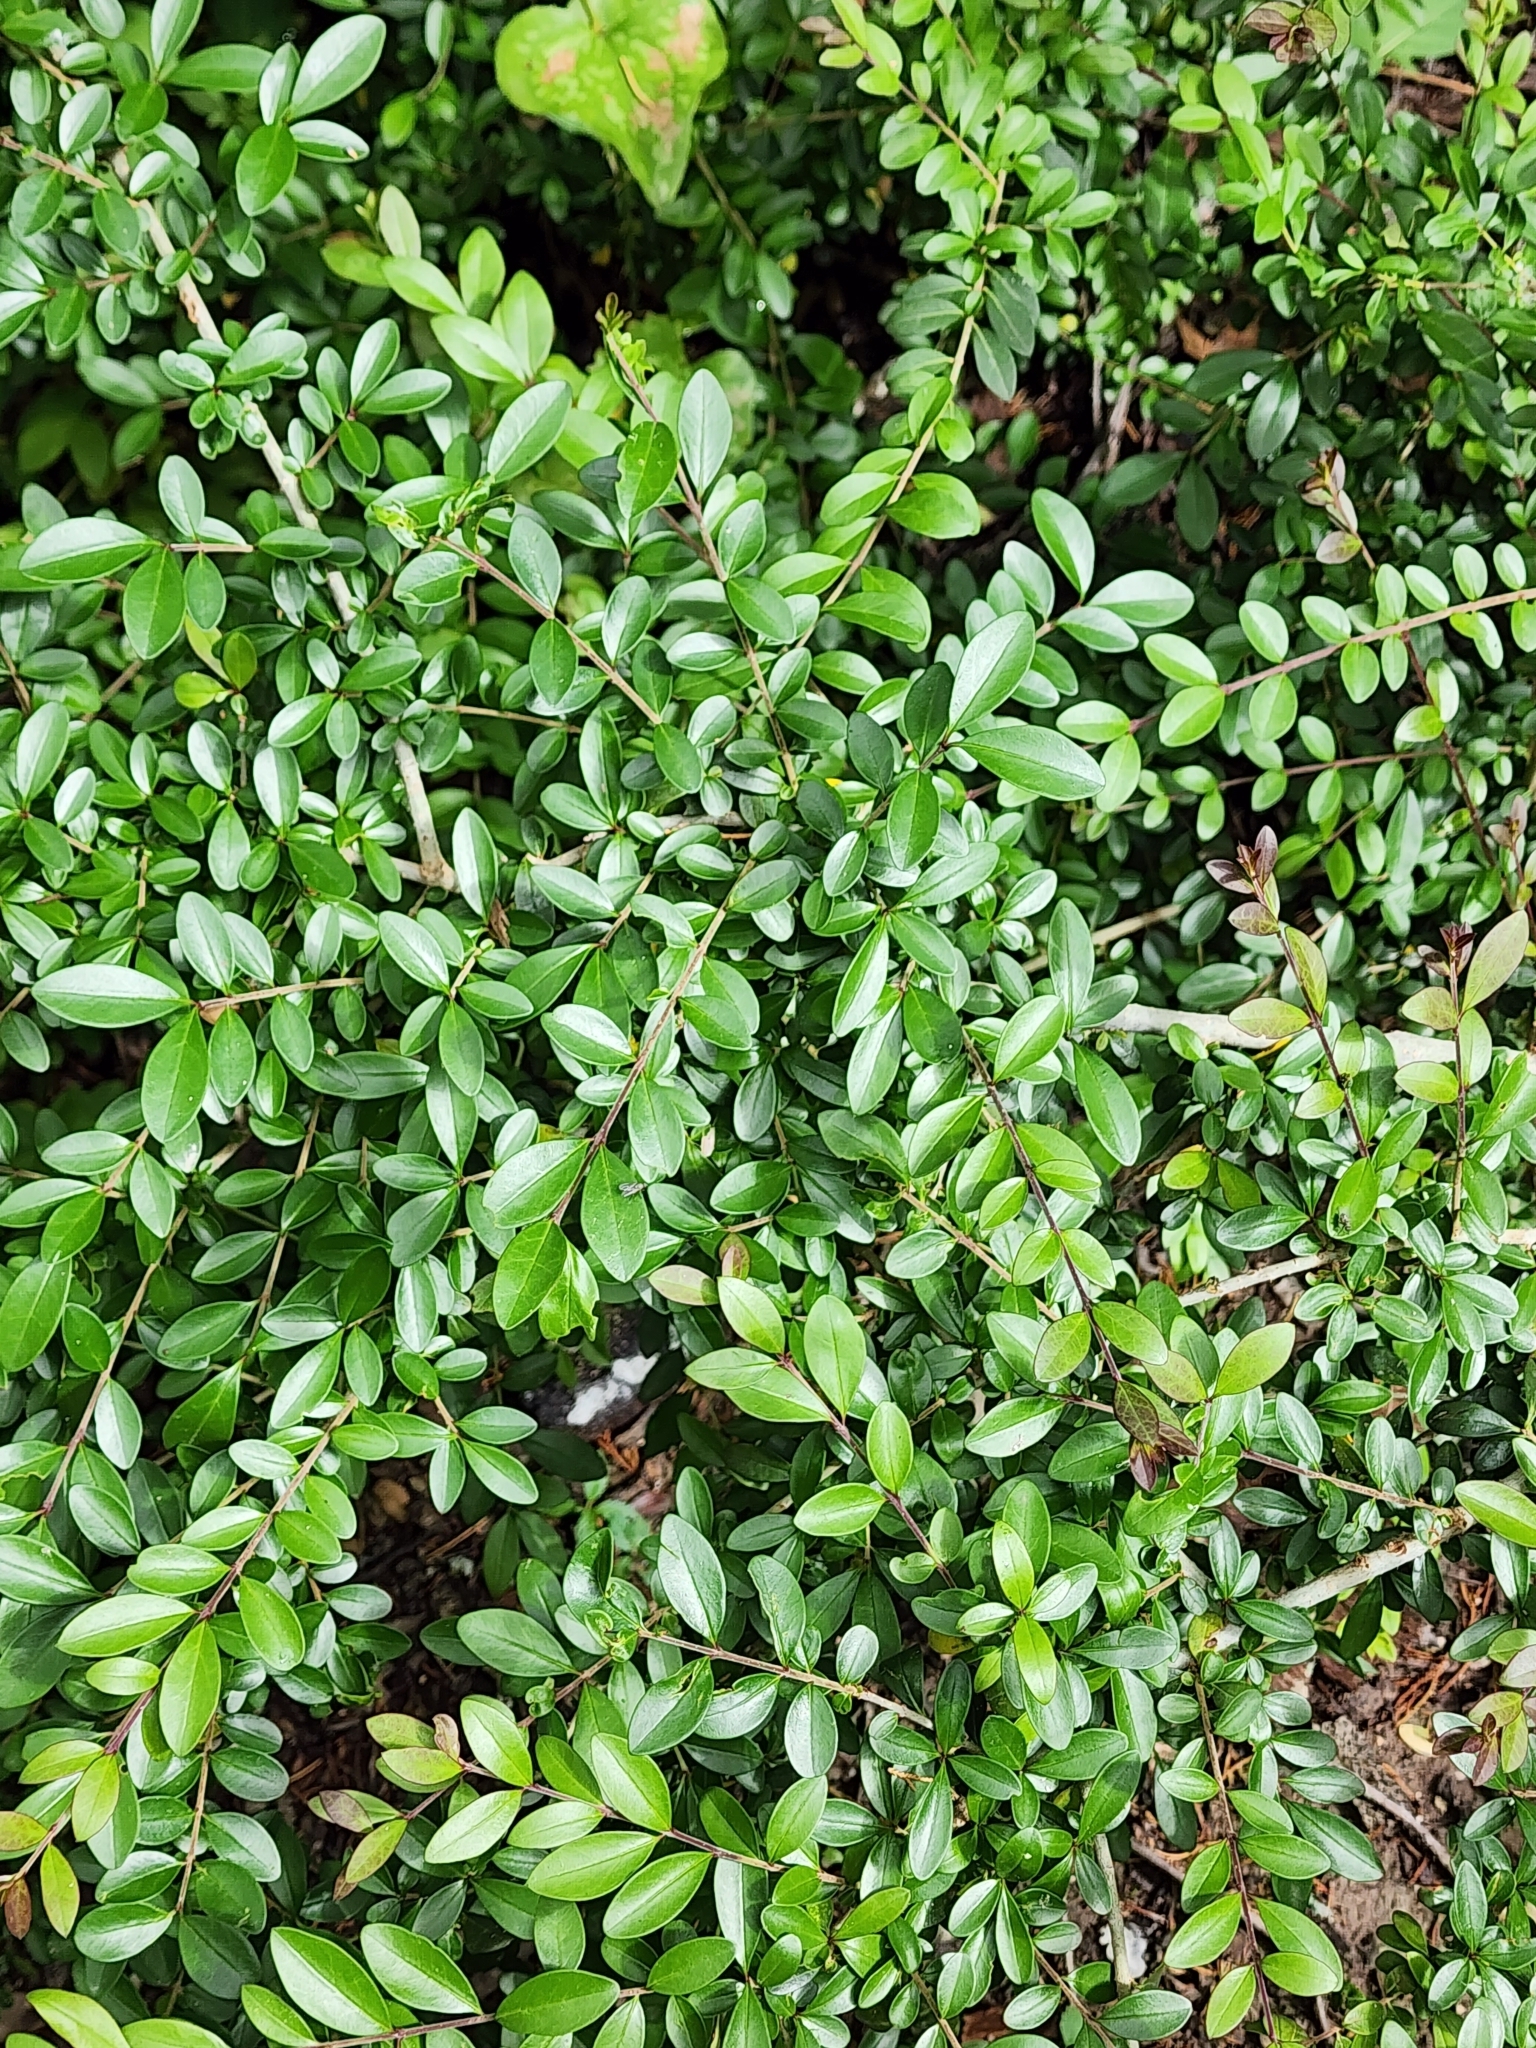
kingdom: Plantae
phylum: Tracheophyta
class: Magnoliopsida
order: Lamiales
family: Oleaceae
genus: Ligustrum
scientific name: Ligustrum quihoui
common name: Waxyleaf privet
